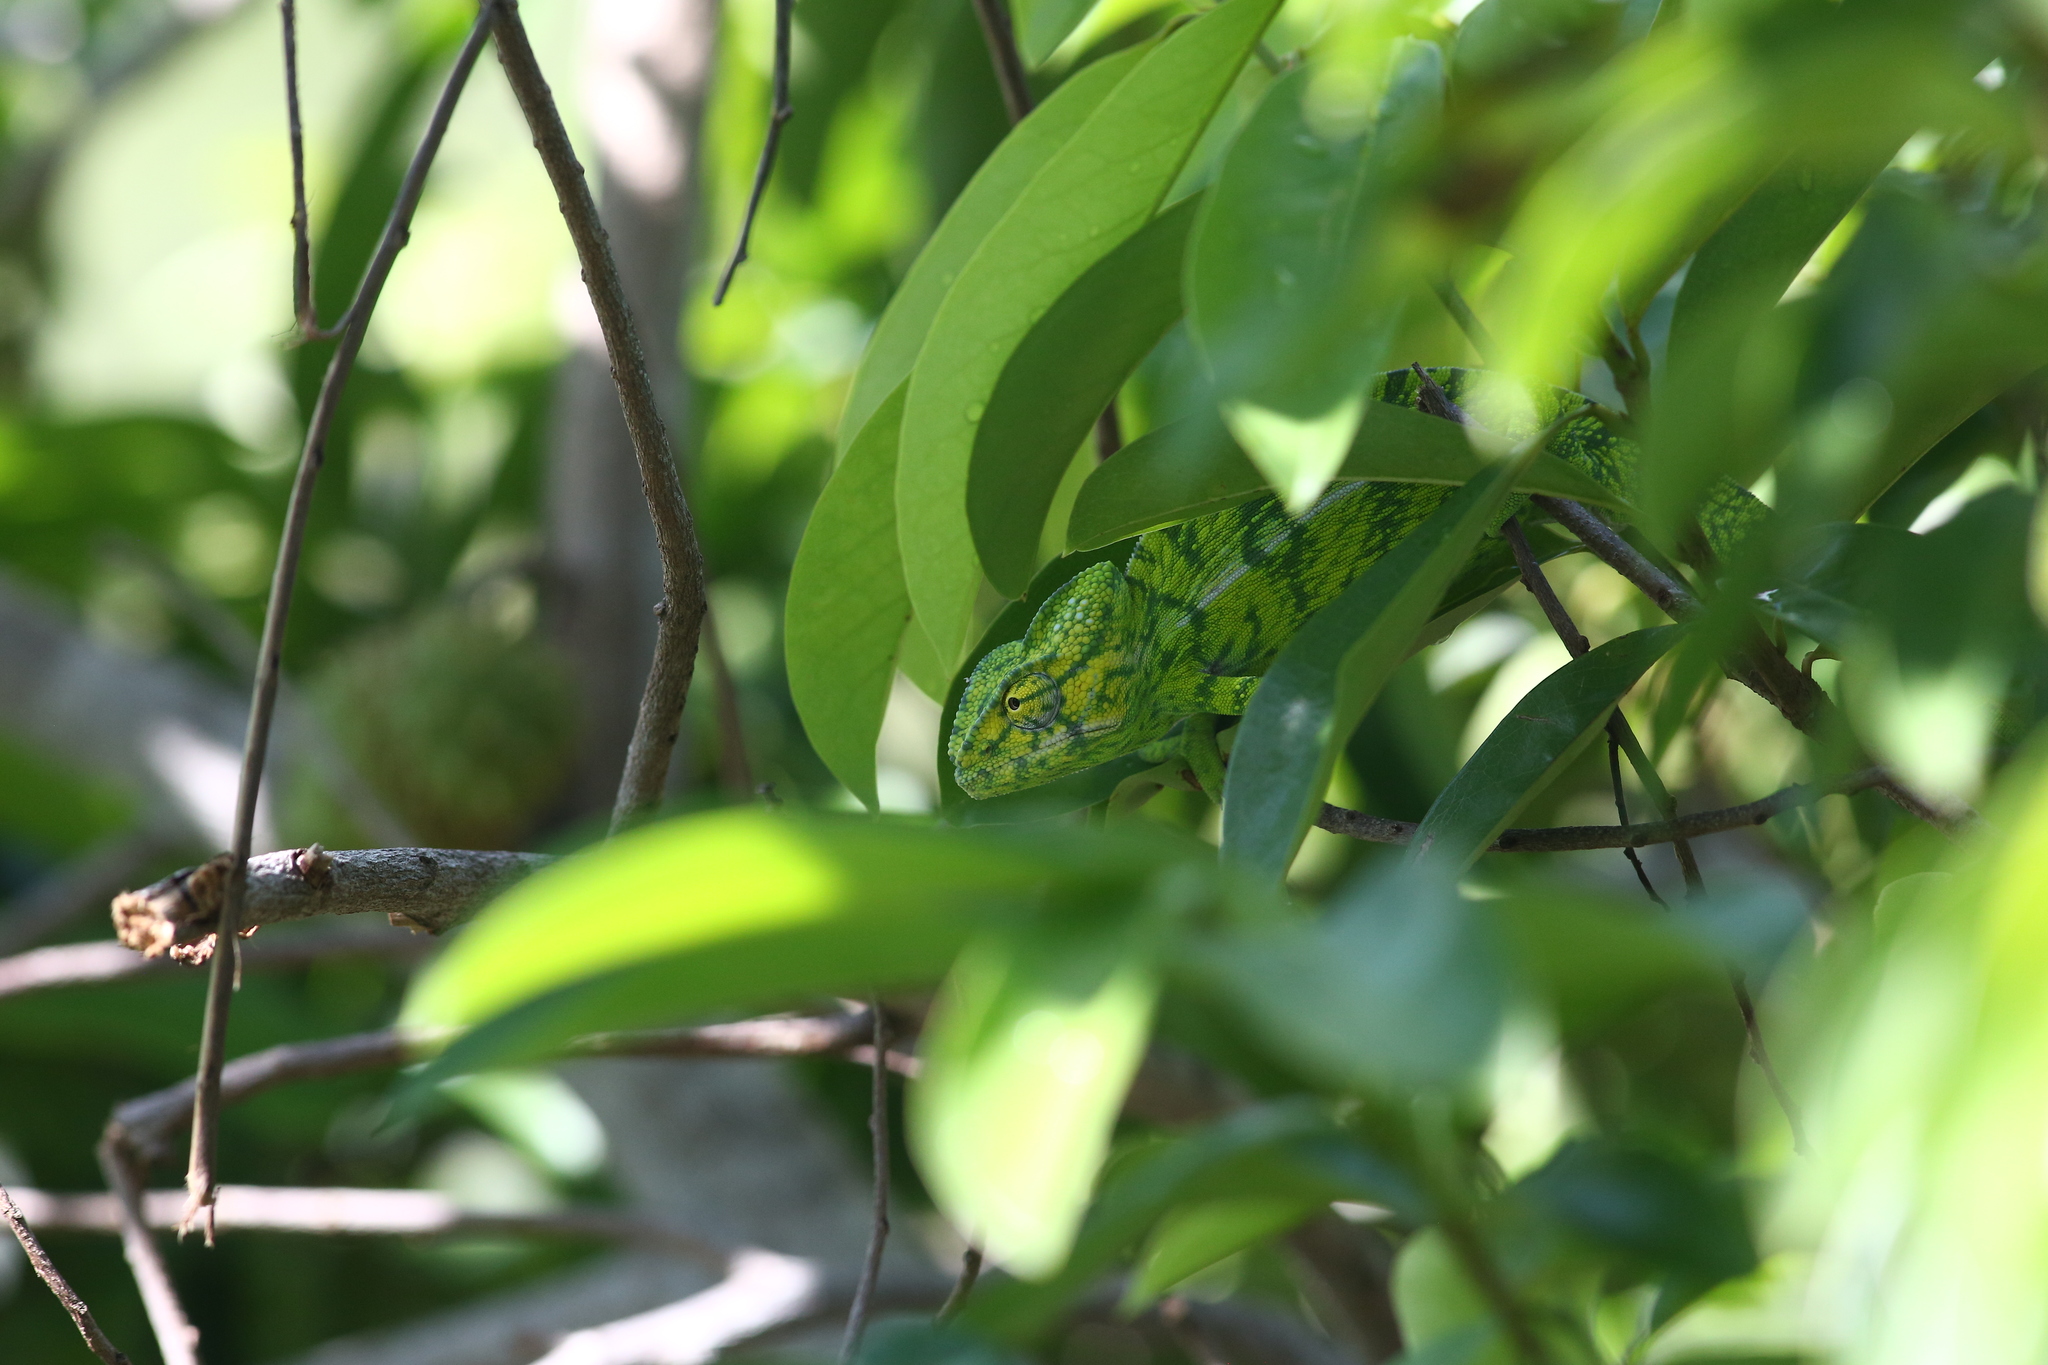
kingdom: Animalia
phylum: Chordata
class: Squamata
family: Chamaeleonidae
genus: Furcifer
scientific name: Furcifer viridis
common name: Green chameleon
